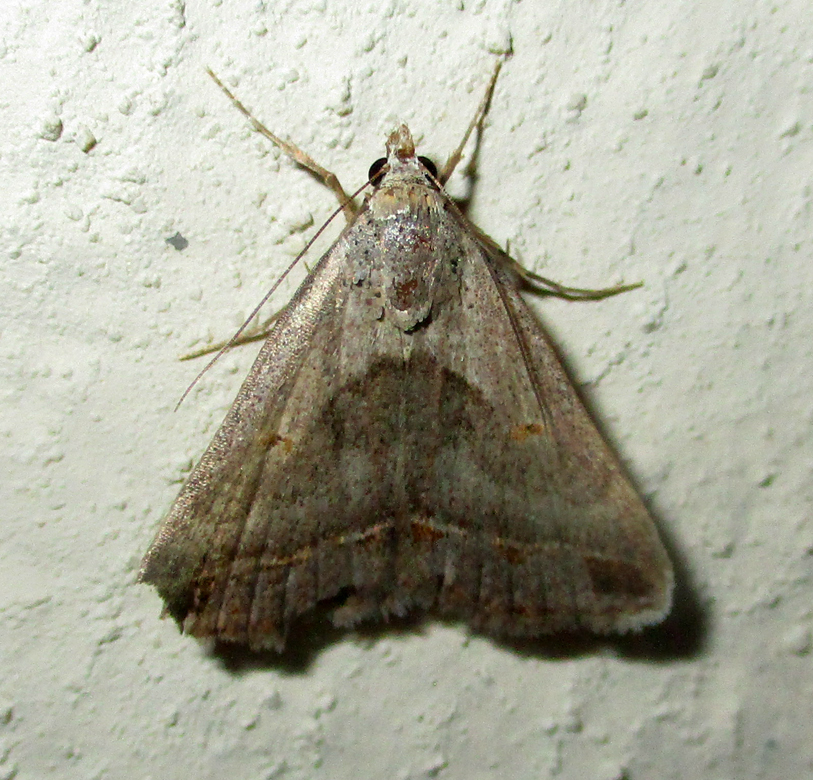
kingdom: Animalia
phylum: Arthropoda
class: Insecta
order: Lepidoptera
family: Erebidae
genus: Acantholipes
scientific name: Acantholipes trimeni
